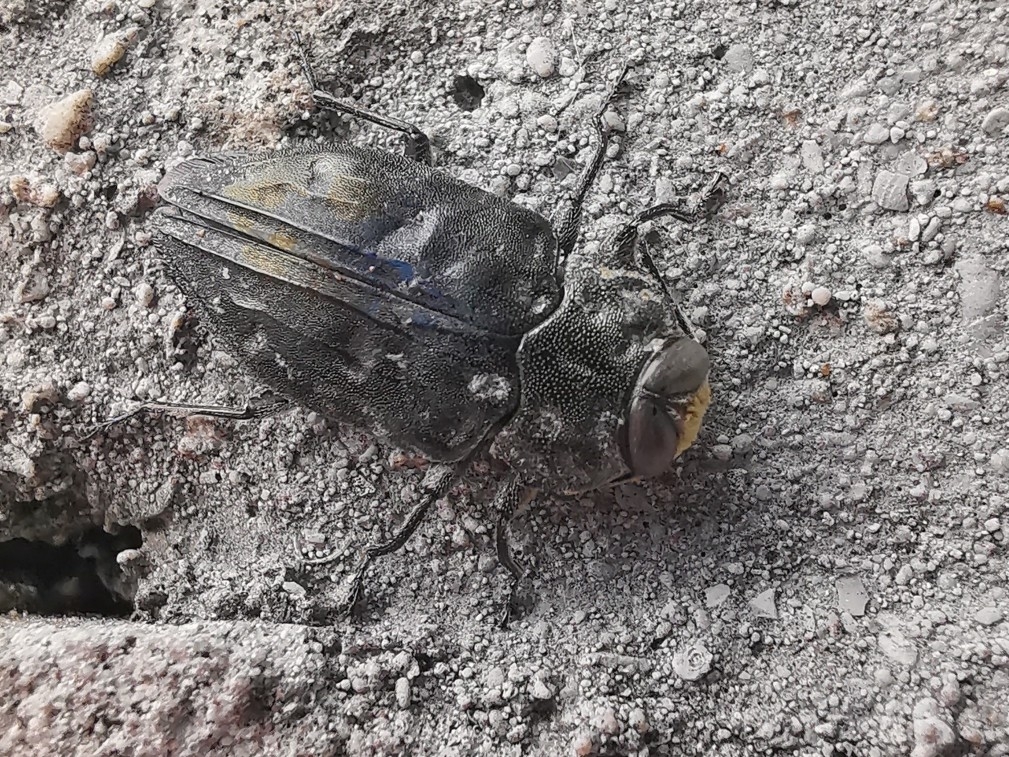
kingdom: Animalia
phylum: Arthropoda
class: Insecta
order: Coleoptera
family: Buprestidae
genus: Chrysobothris
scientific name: Chrysobothris tranquebarica
